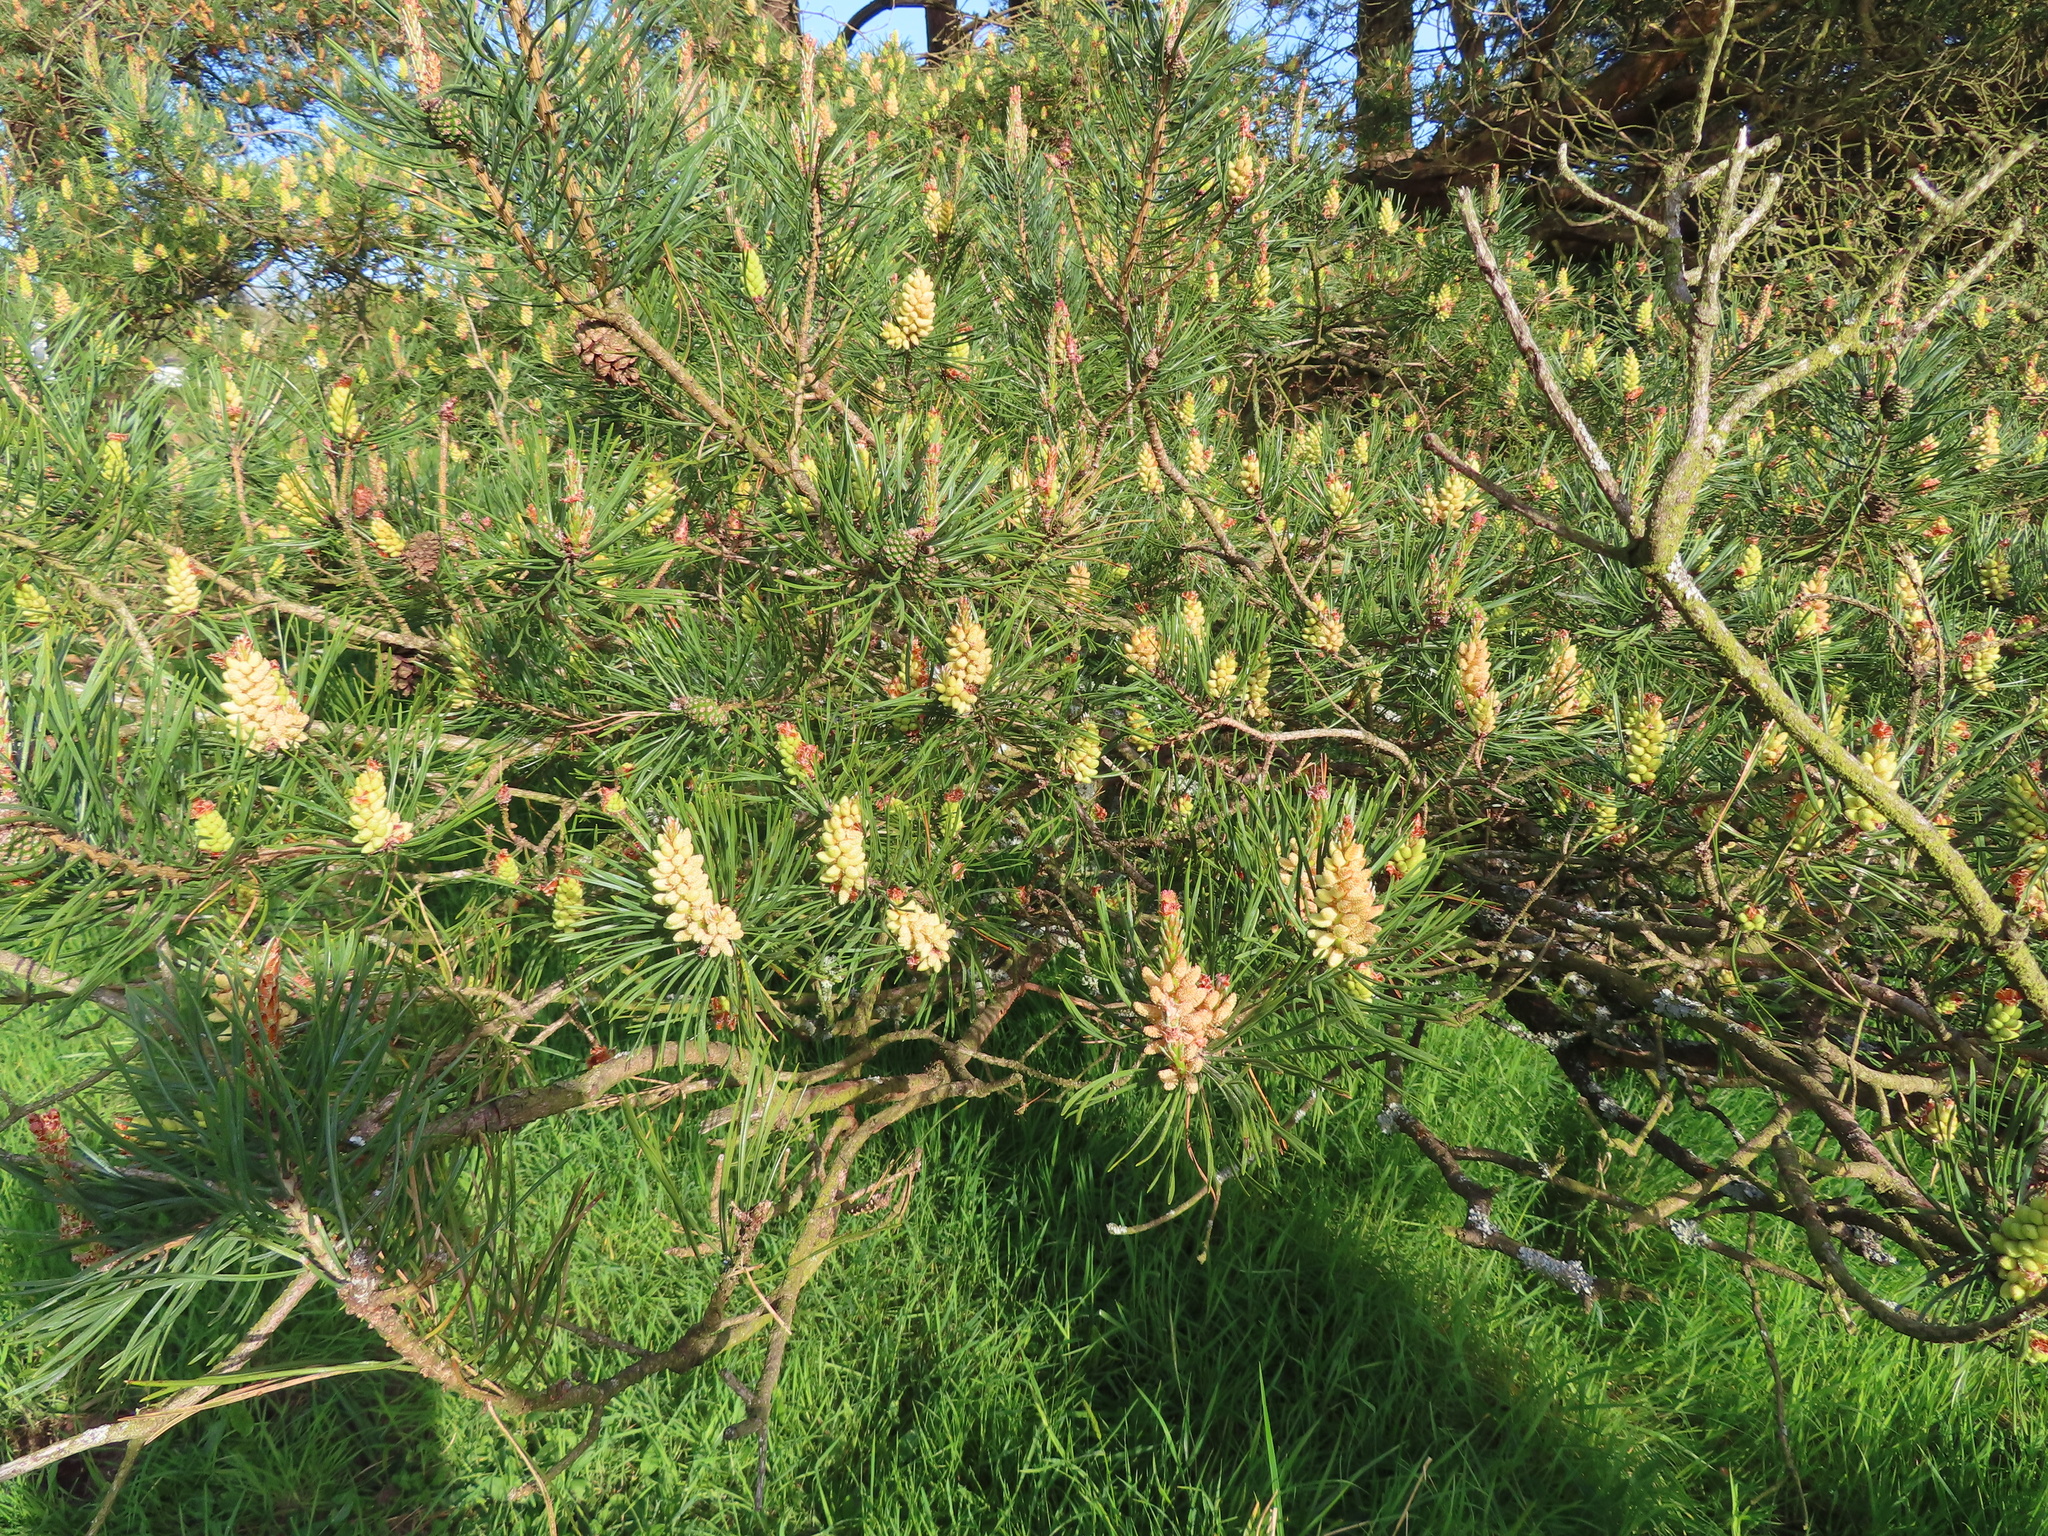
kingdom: Plantae
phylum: Tracheophyta
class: Pinopsida
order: Pinales
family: Pinaceae
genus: Pinus
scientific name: Pinus sylvestris
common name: Scots pine
